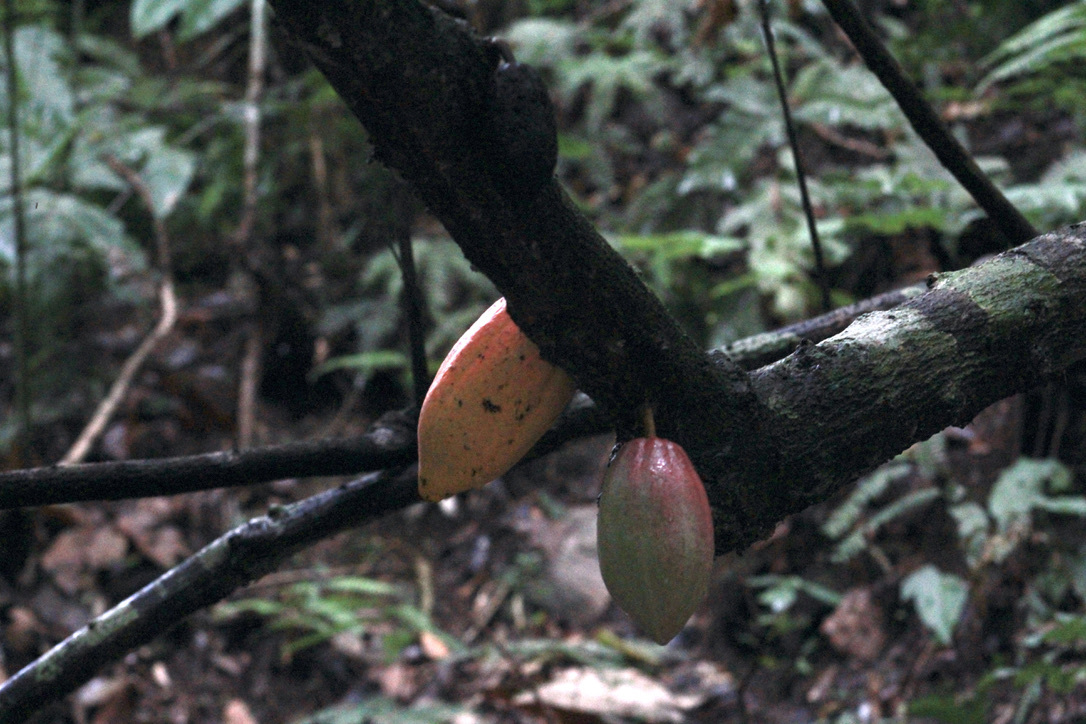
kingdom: Plantae
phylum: Tracheophyta
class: Magnoliopsida
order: Malvales
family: Malvaceae
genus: Theobroma
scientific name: Theobroma cacao
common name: Cocoa
